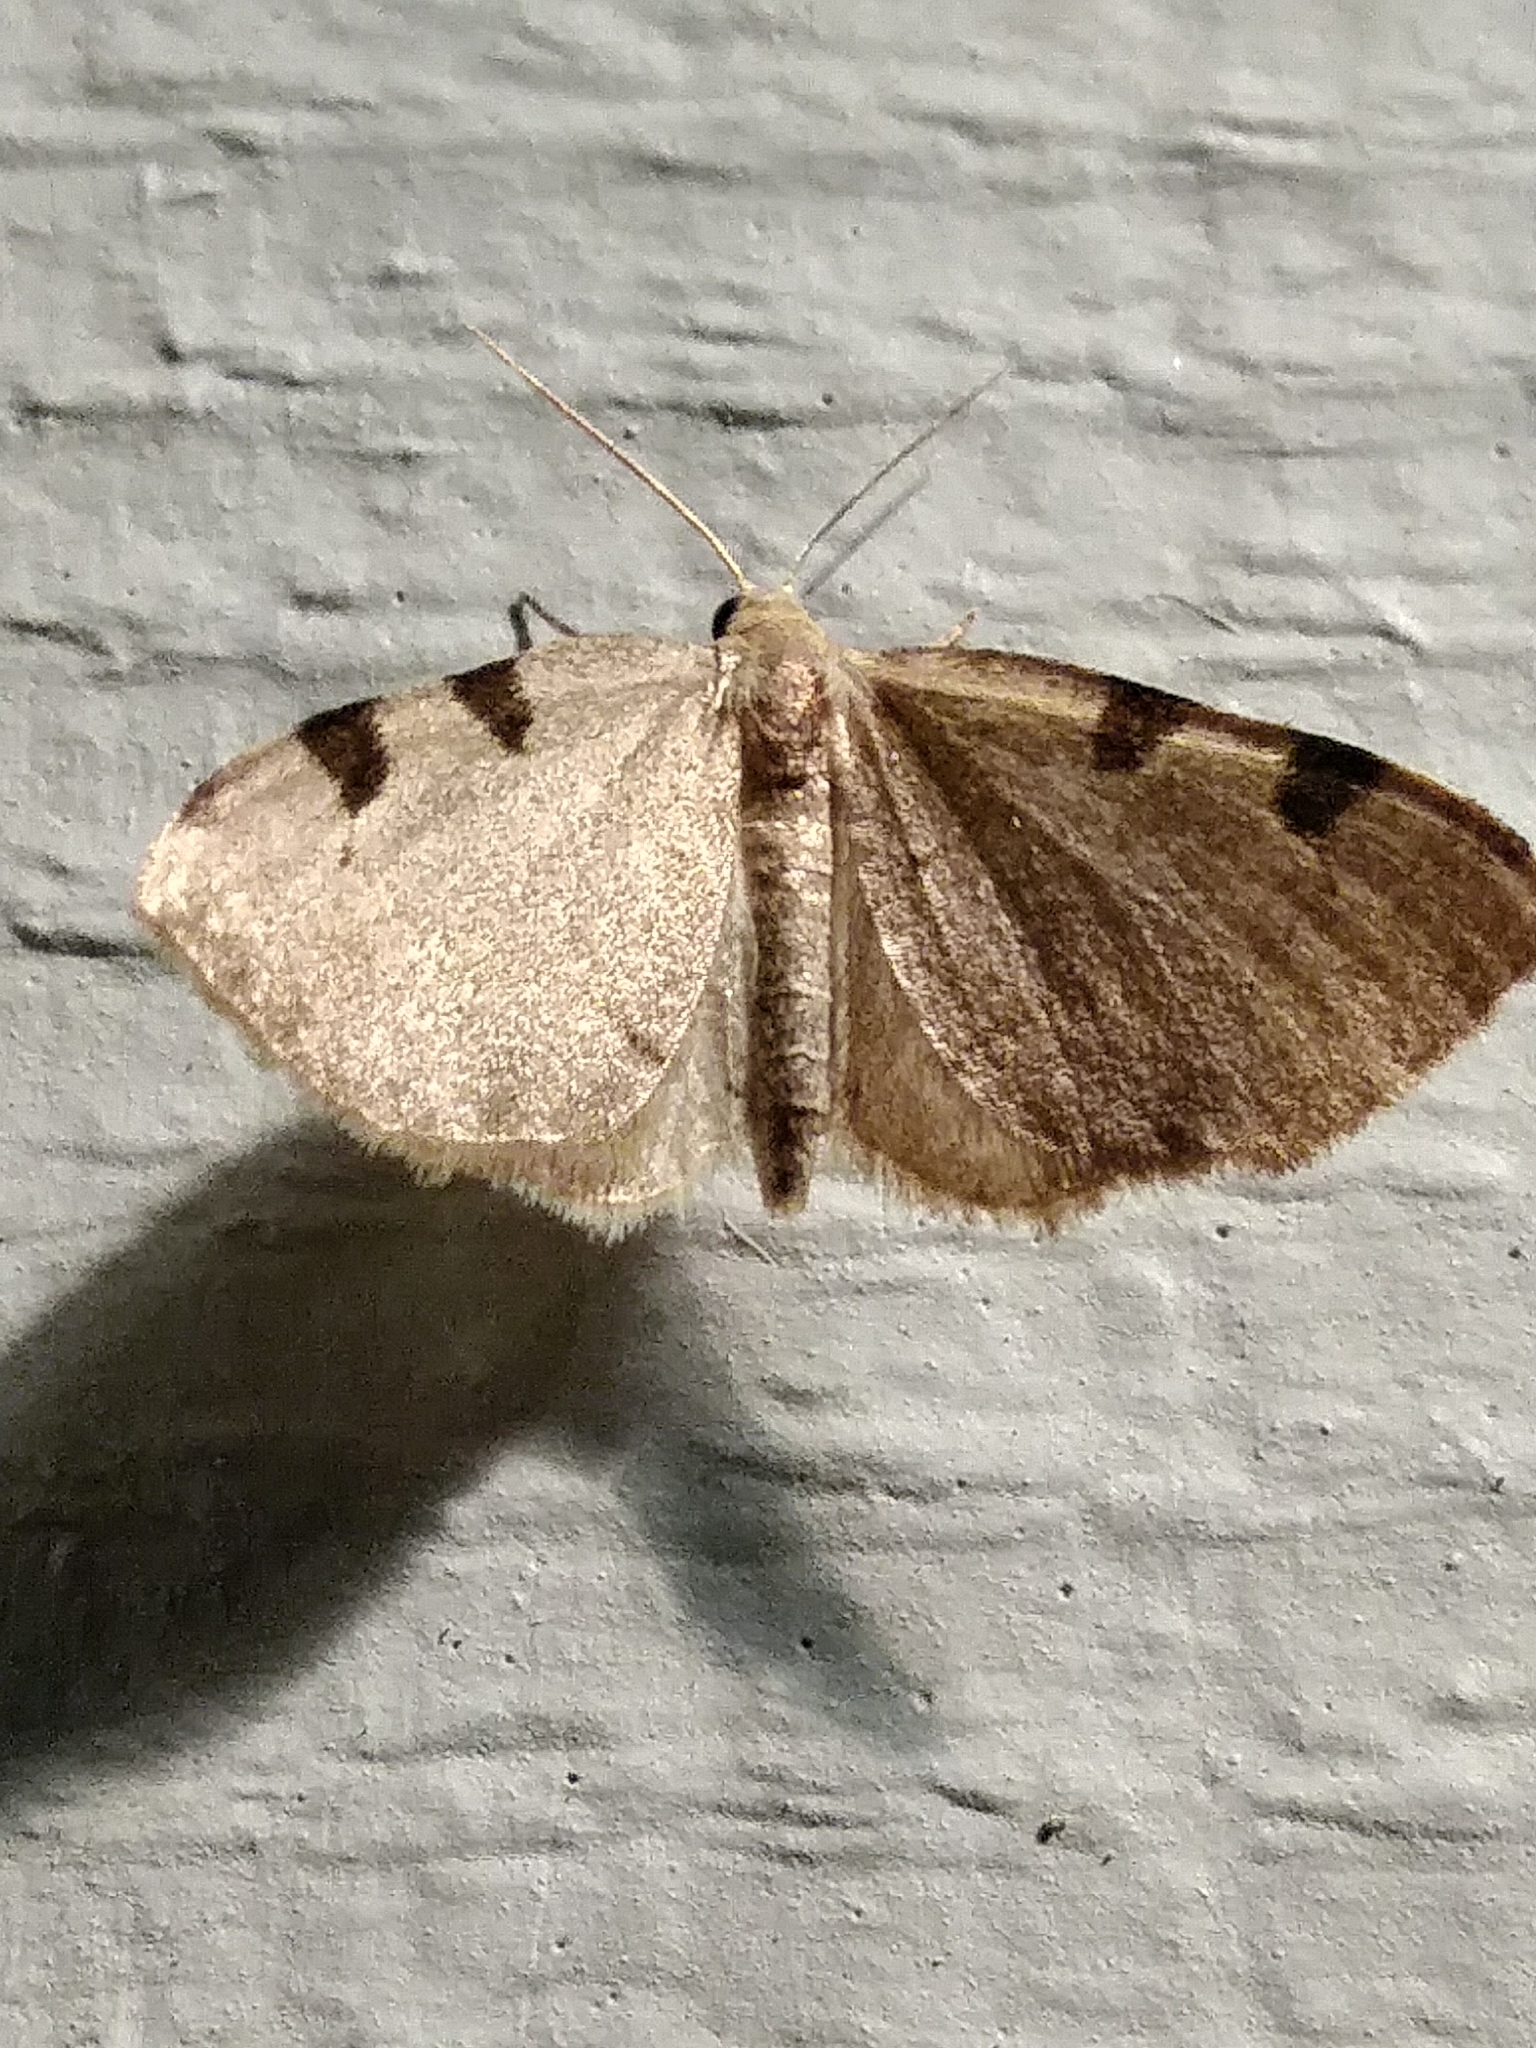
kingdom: Animalia
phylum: Arthropoda
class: Insecta
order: Lepidoptera
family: Geometridae
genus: Heterophleps
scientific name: Heterophleps triguttaria
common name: Three-spotted fillip
